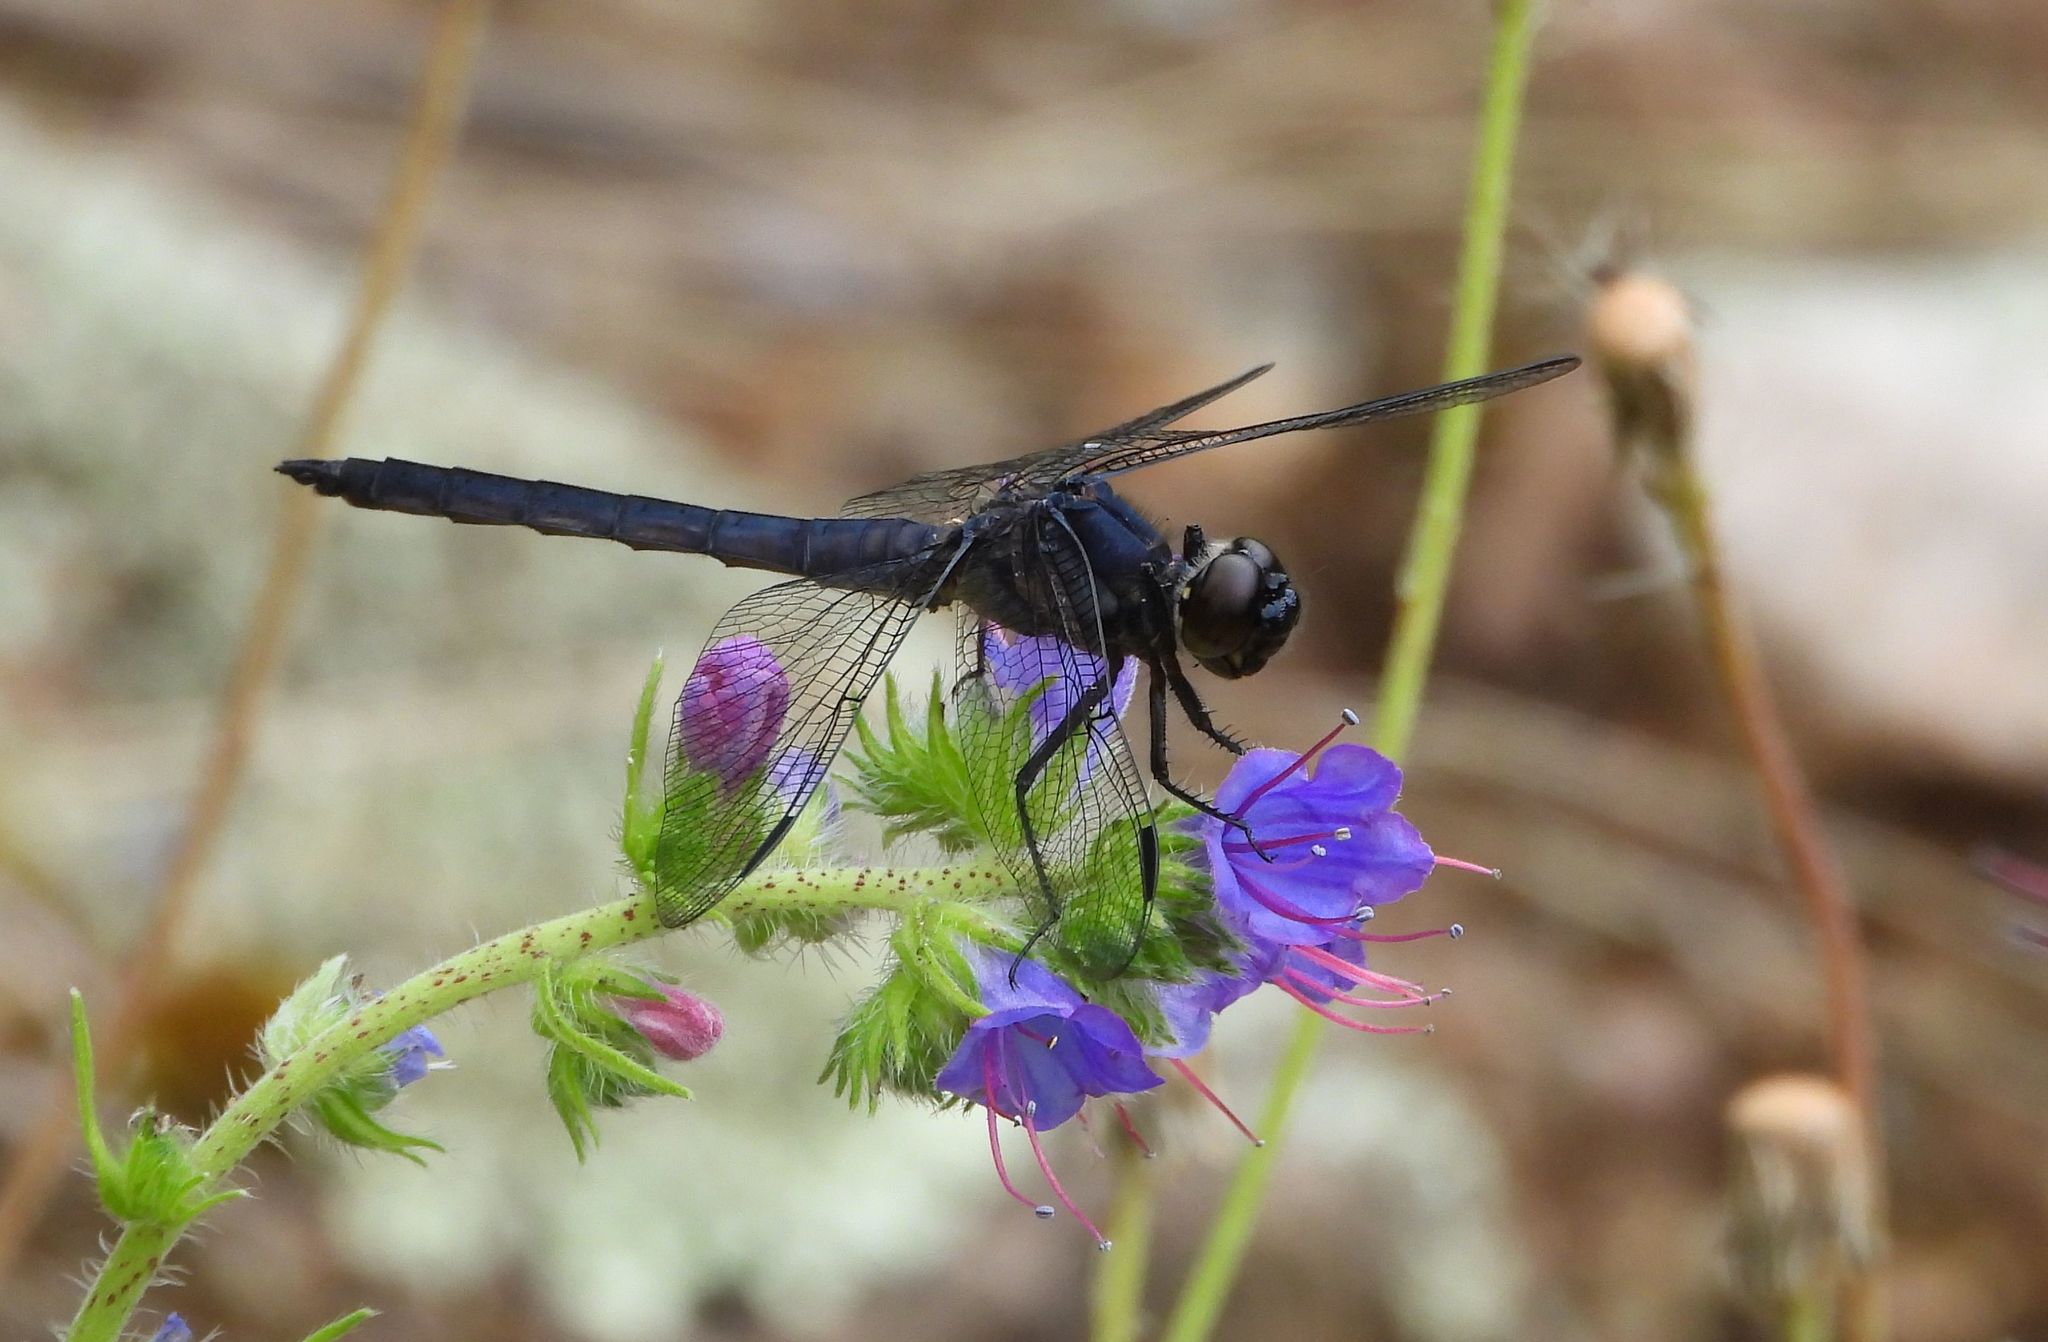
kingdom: Animalia
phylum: Arthropoda
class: Insecta
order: Odonata
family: Libellulidae
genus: Libellula
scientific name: Libellula incesta
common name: Slaty skimmer
